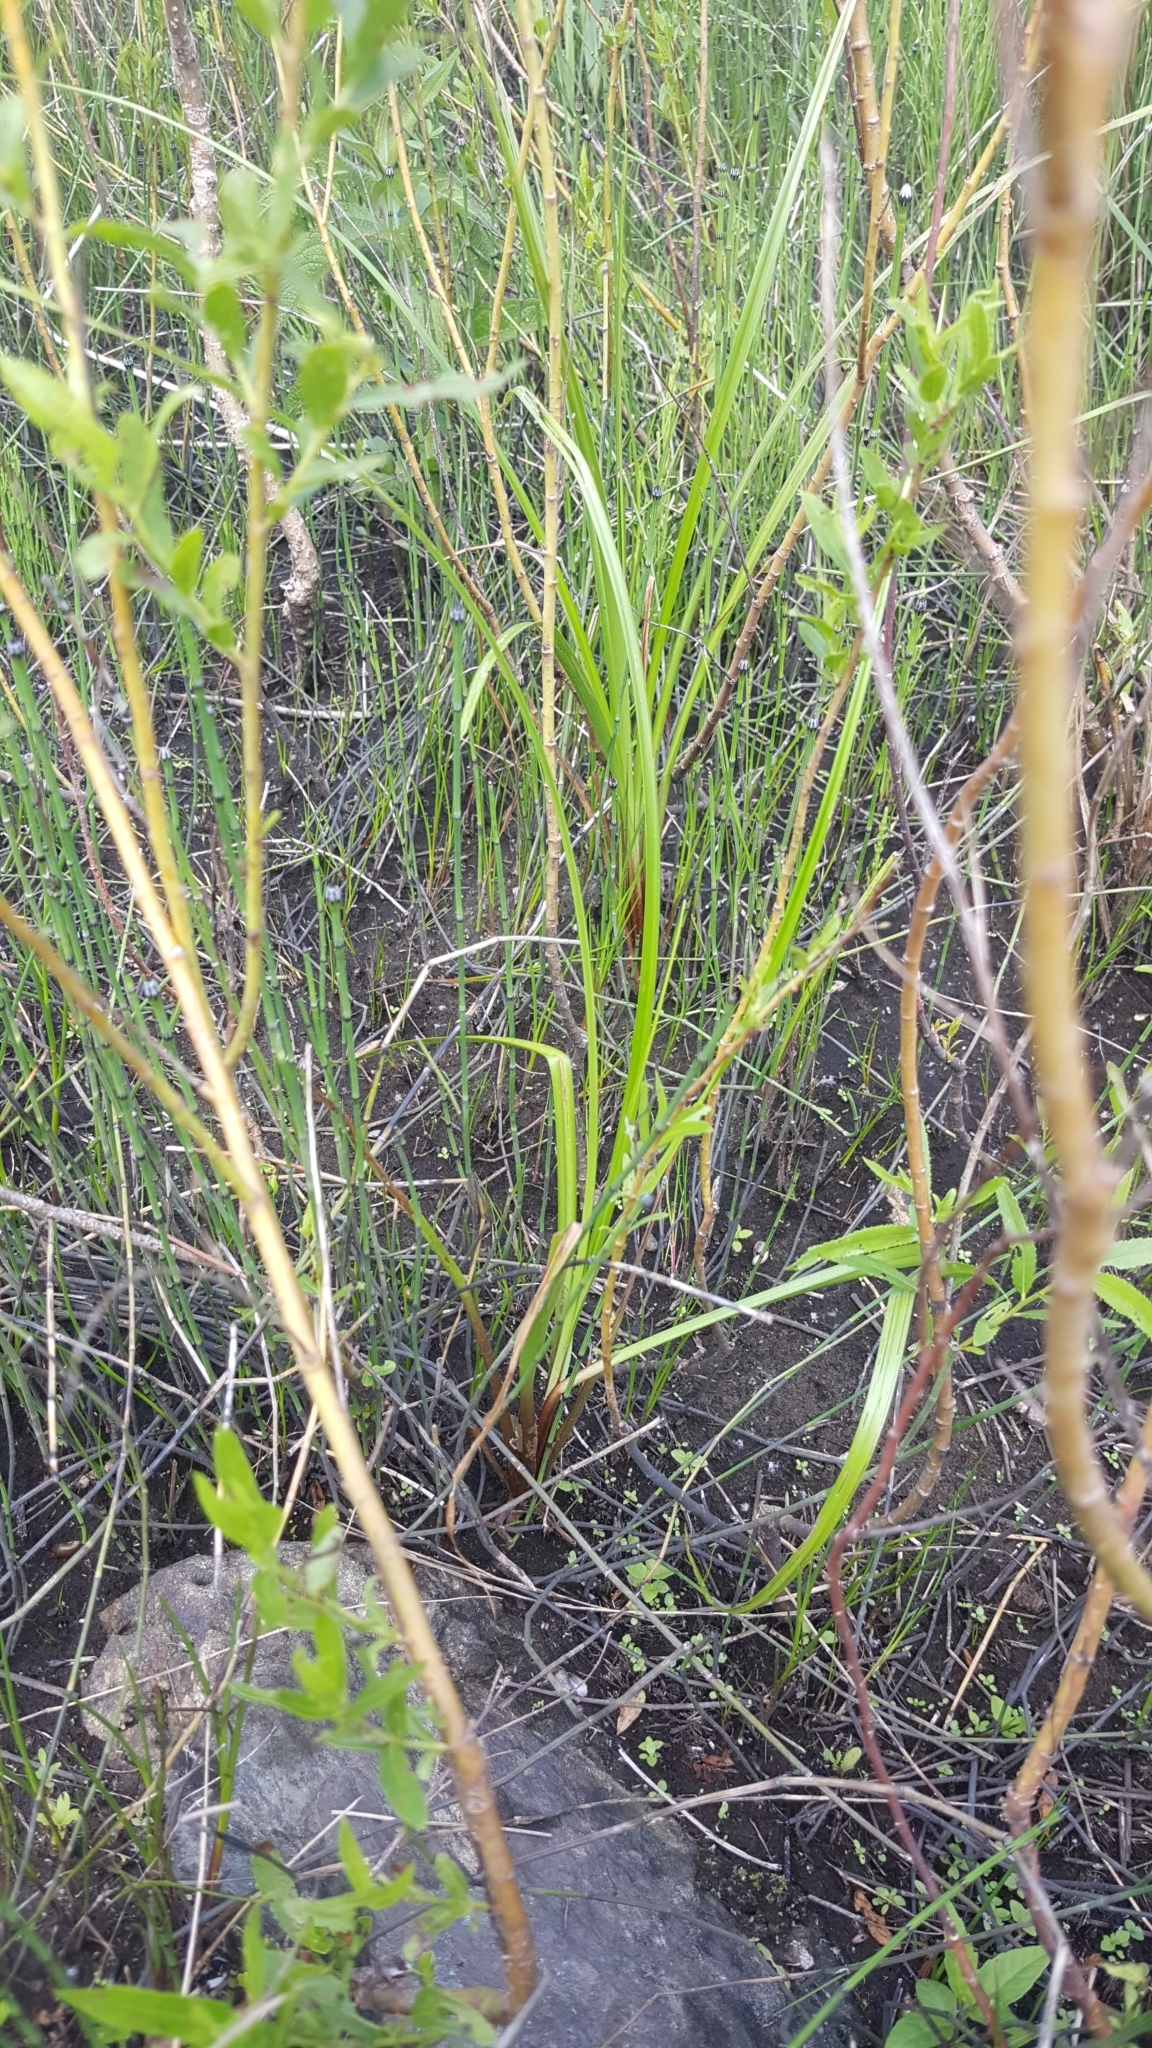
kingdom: Plantae
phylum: Tracheophyta
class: Liliopsida
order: Poales
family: Cyperaceae
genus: Carex
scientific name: Carex utriculata
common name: Beaked sedge
